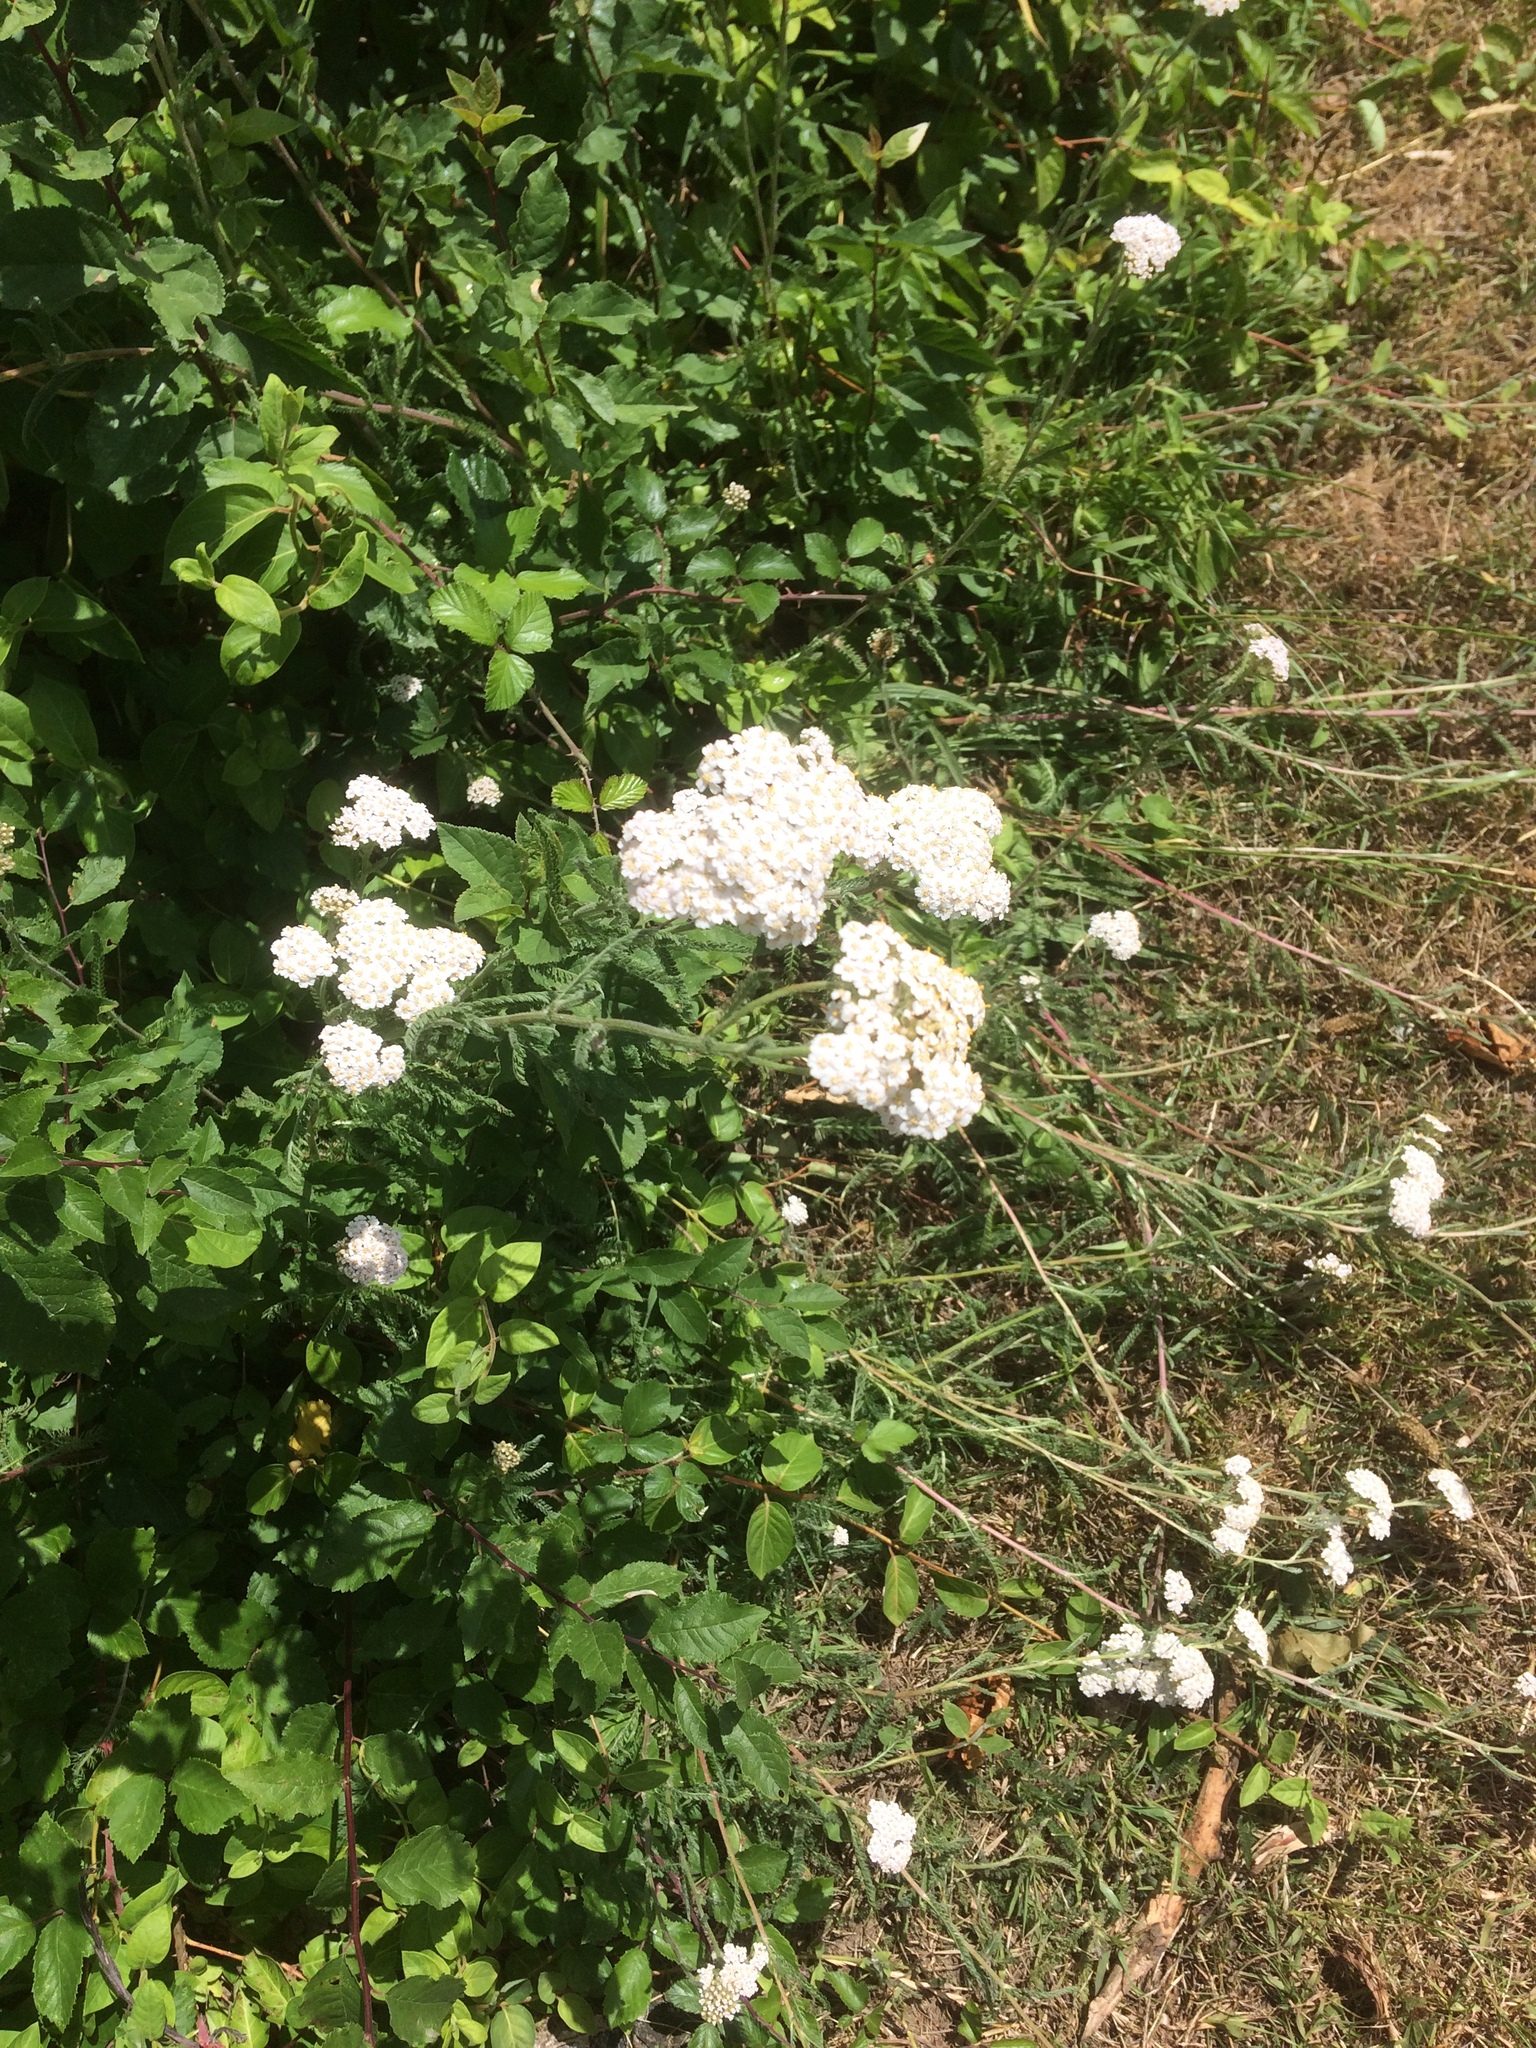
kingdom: Plantae
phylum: Tracheophyta
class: Magnoliopsida
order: Asterales
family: Asteraceae
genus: Achillea
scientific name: Achillea millefolium
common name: Yarrow
